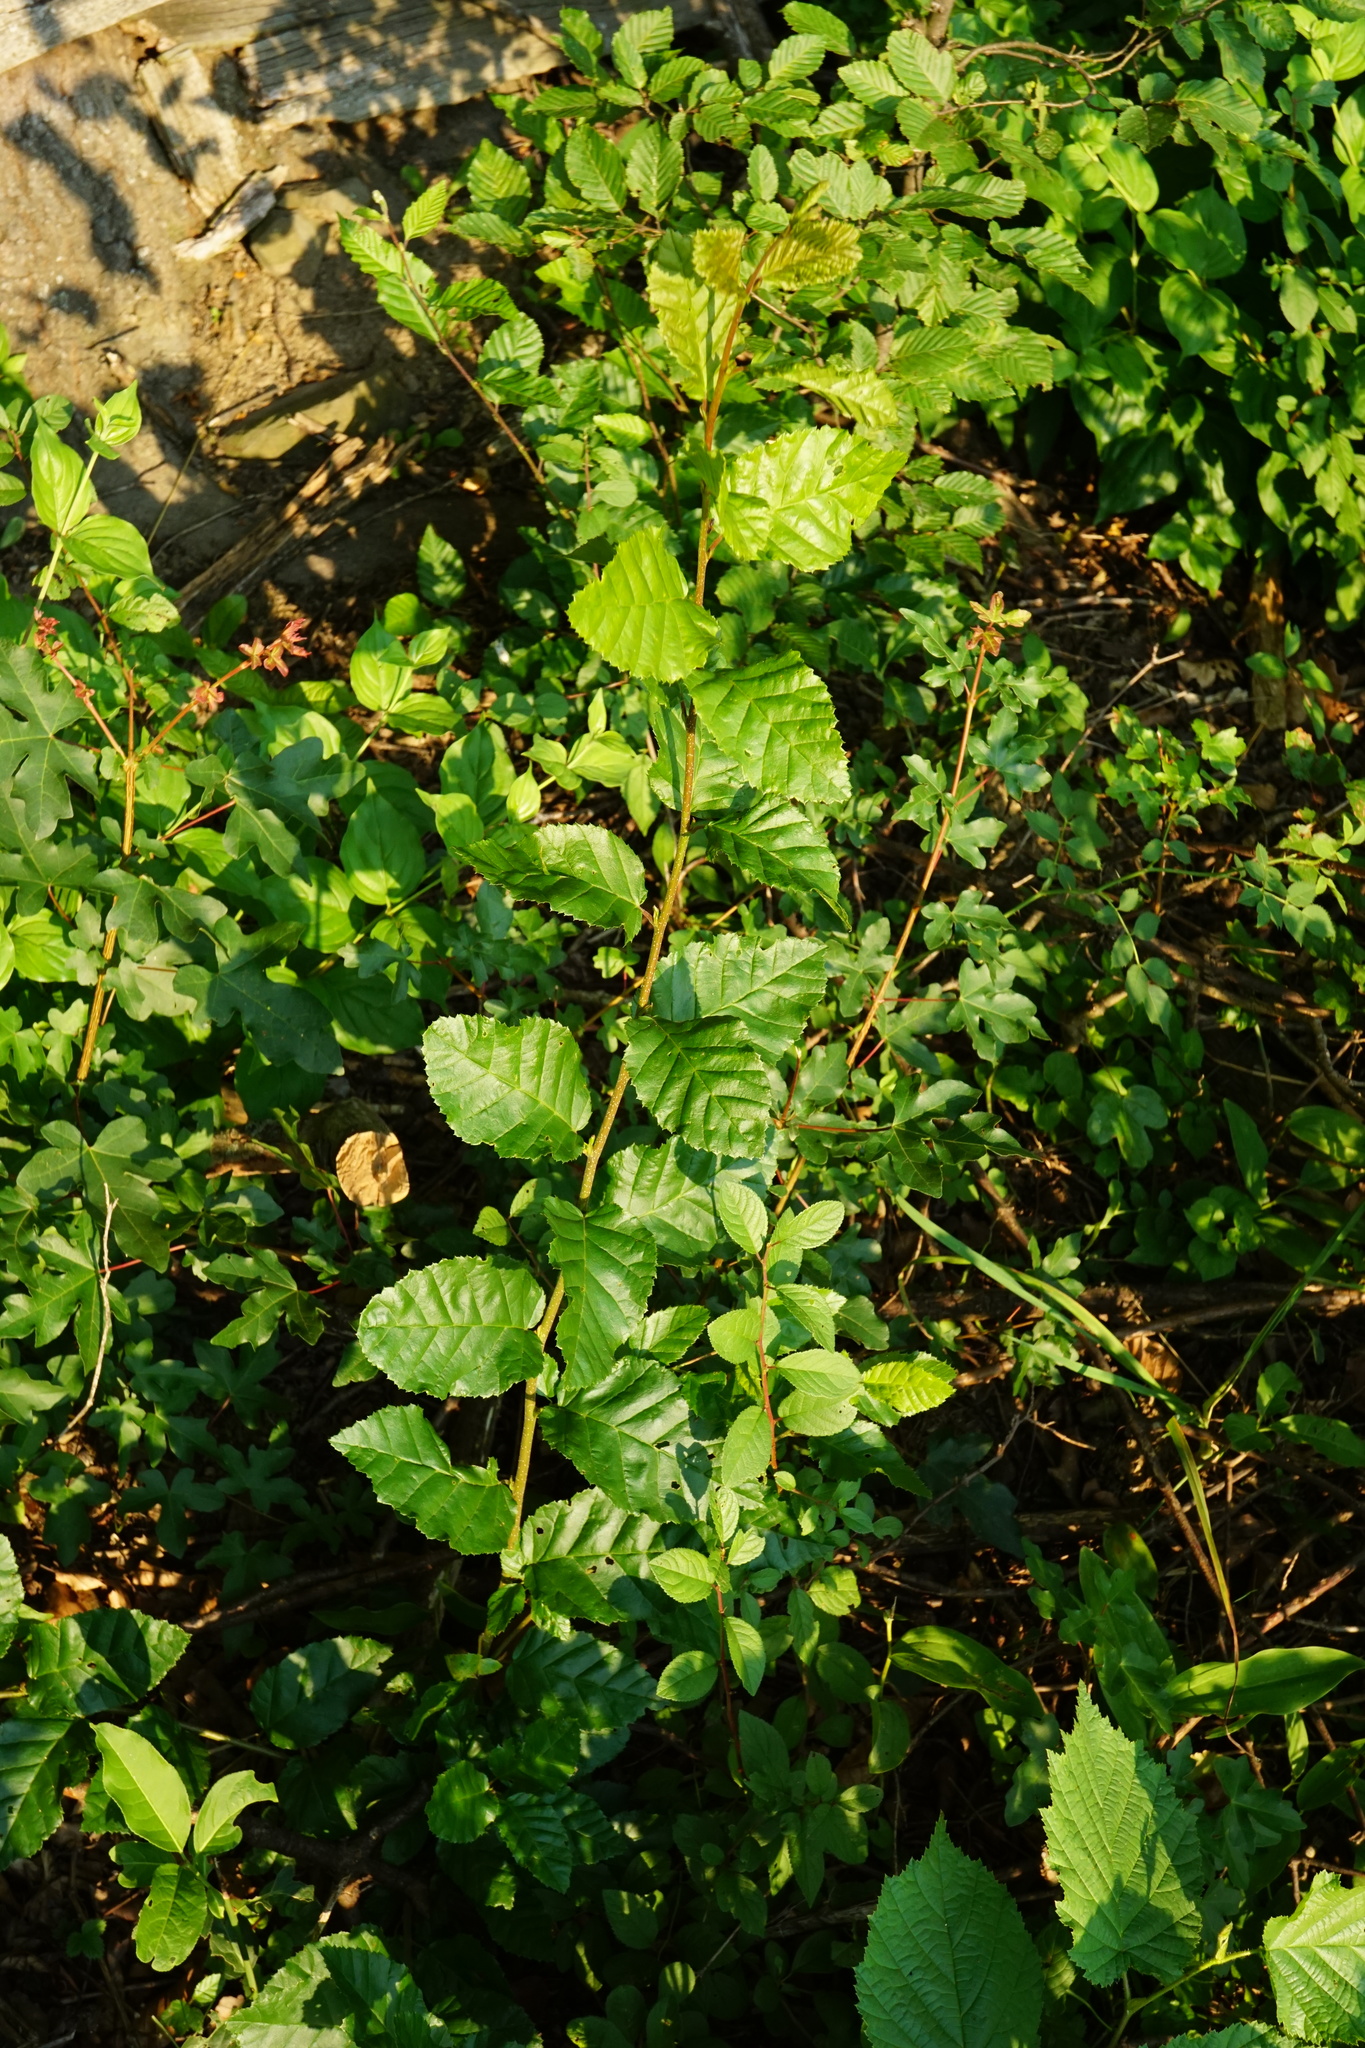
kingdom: Plantae
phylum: Tracheophyta
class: Magnoliopsida
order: Fagales
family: Betulaceae
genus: Carpinus
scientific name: Carpinus betulus
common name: Hornbeam
